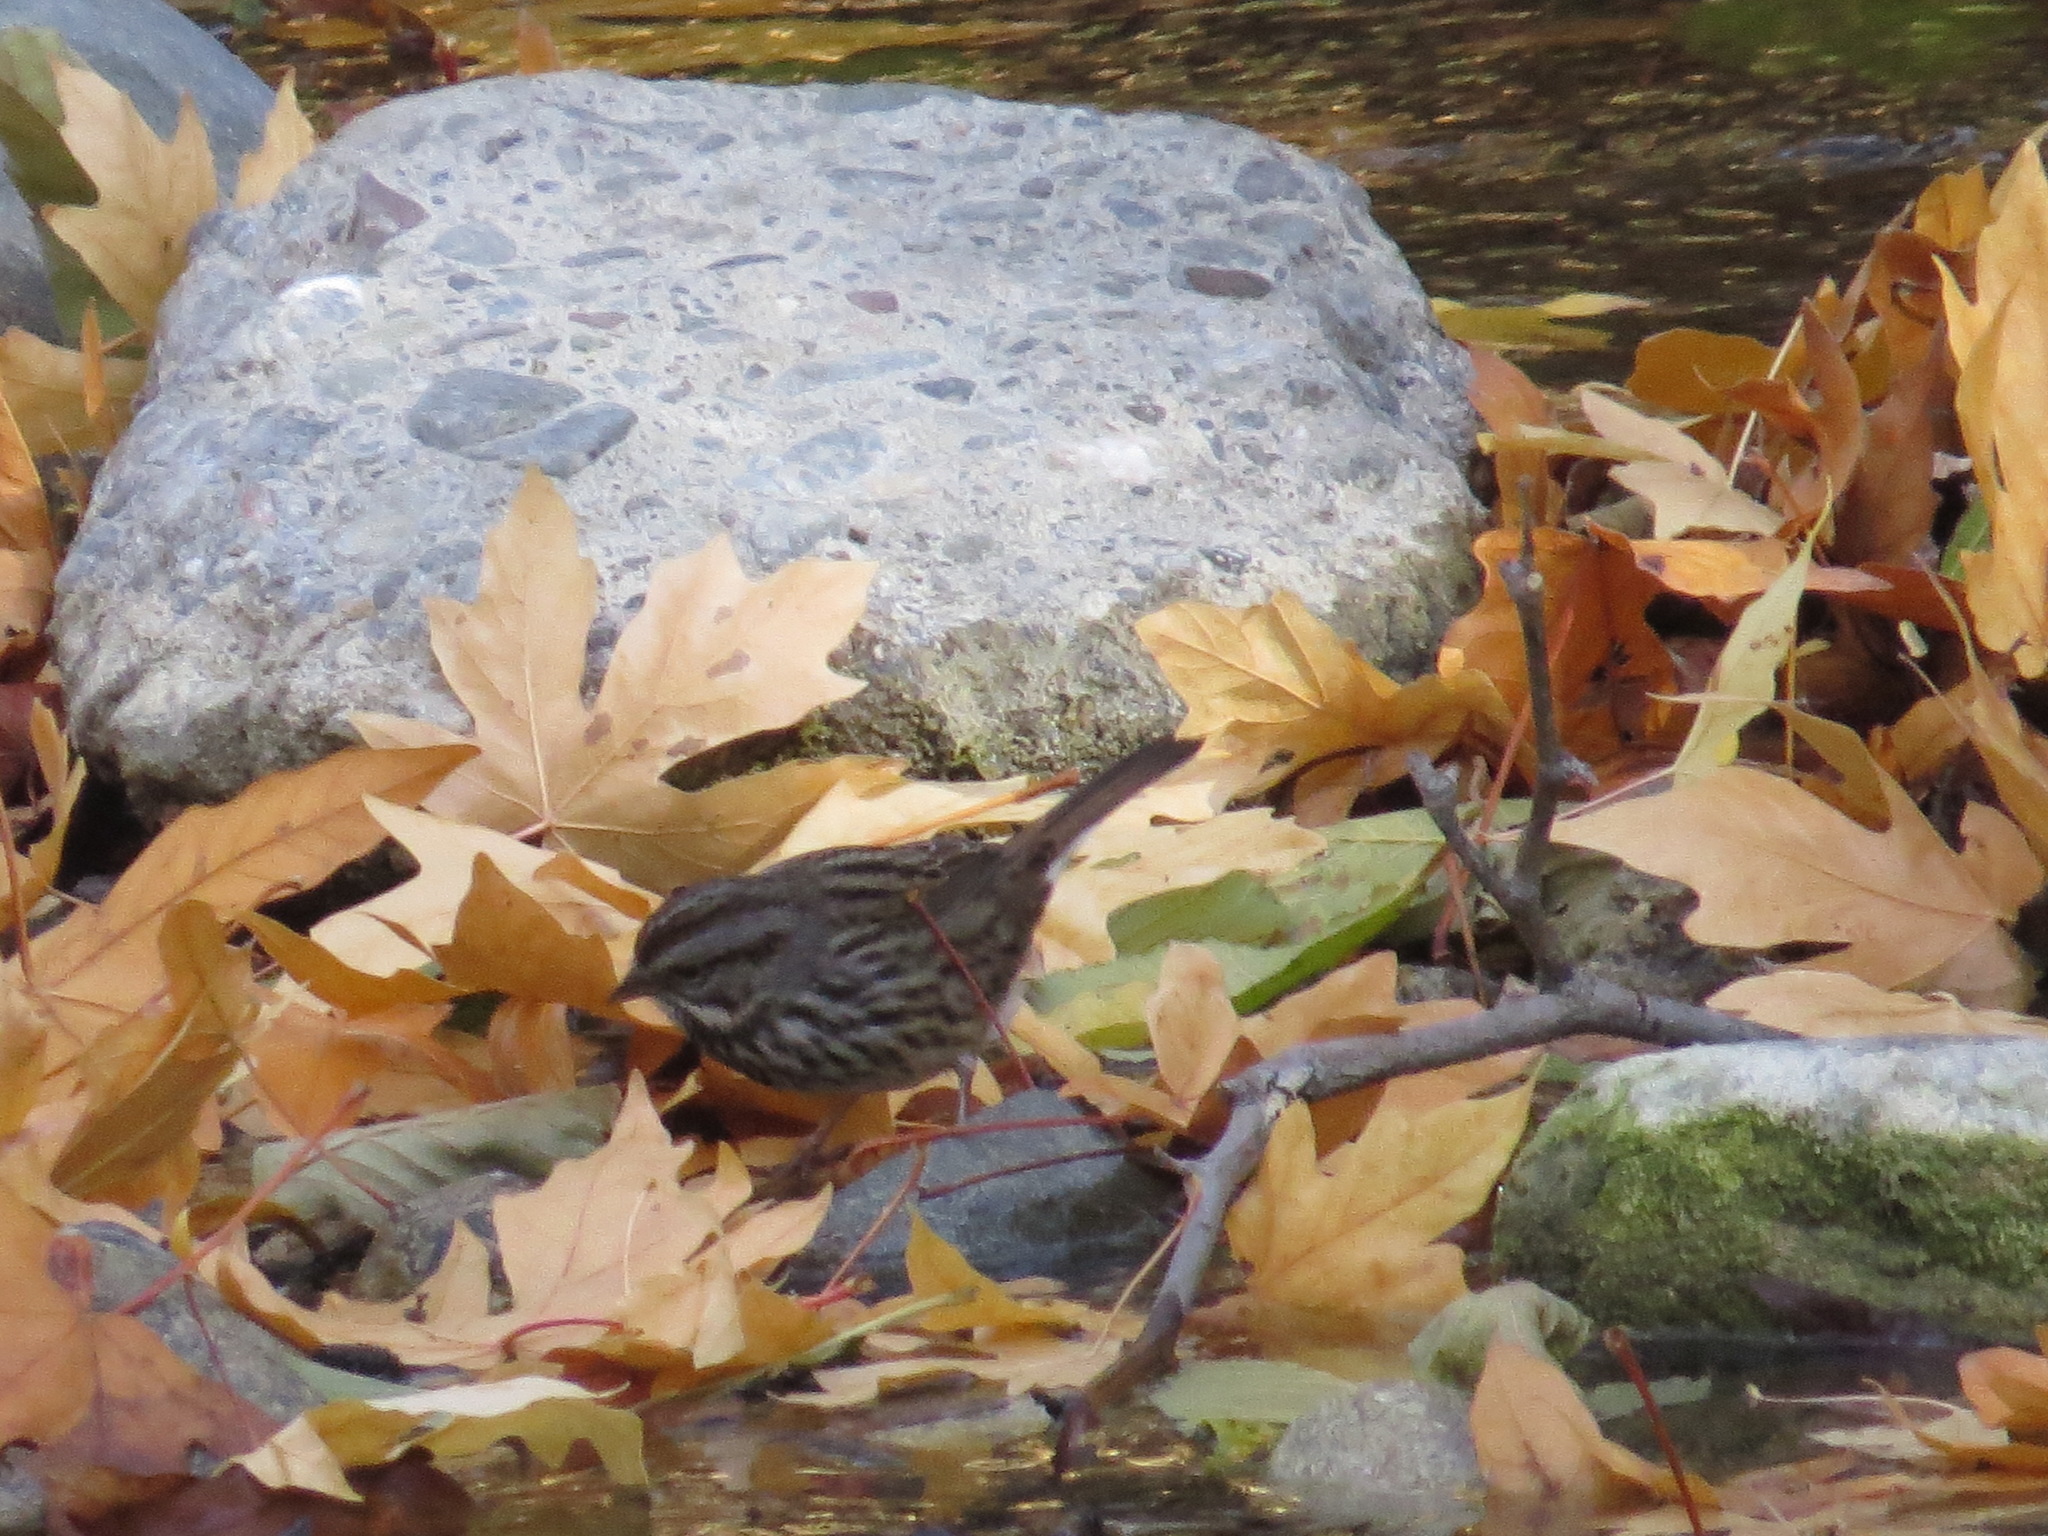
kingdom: Animalia
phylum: Chordata
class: Aves
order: Passeriformes
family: Passerellidae
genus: Melospiza
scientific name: Melospiza melodia
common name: Song sparrow
